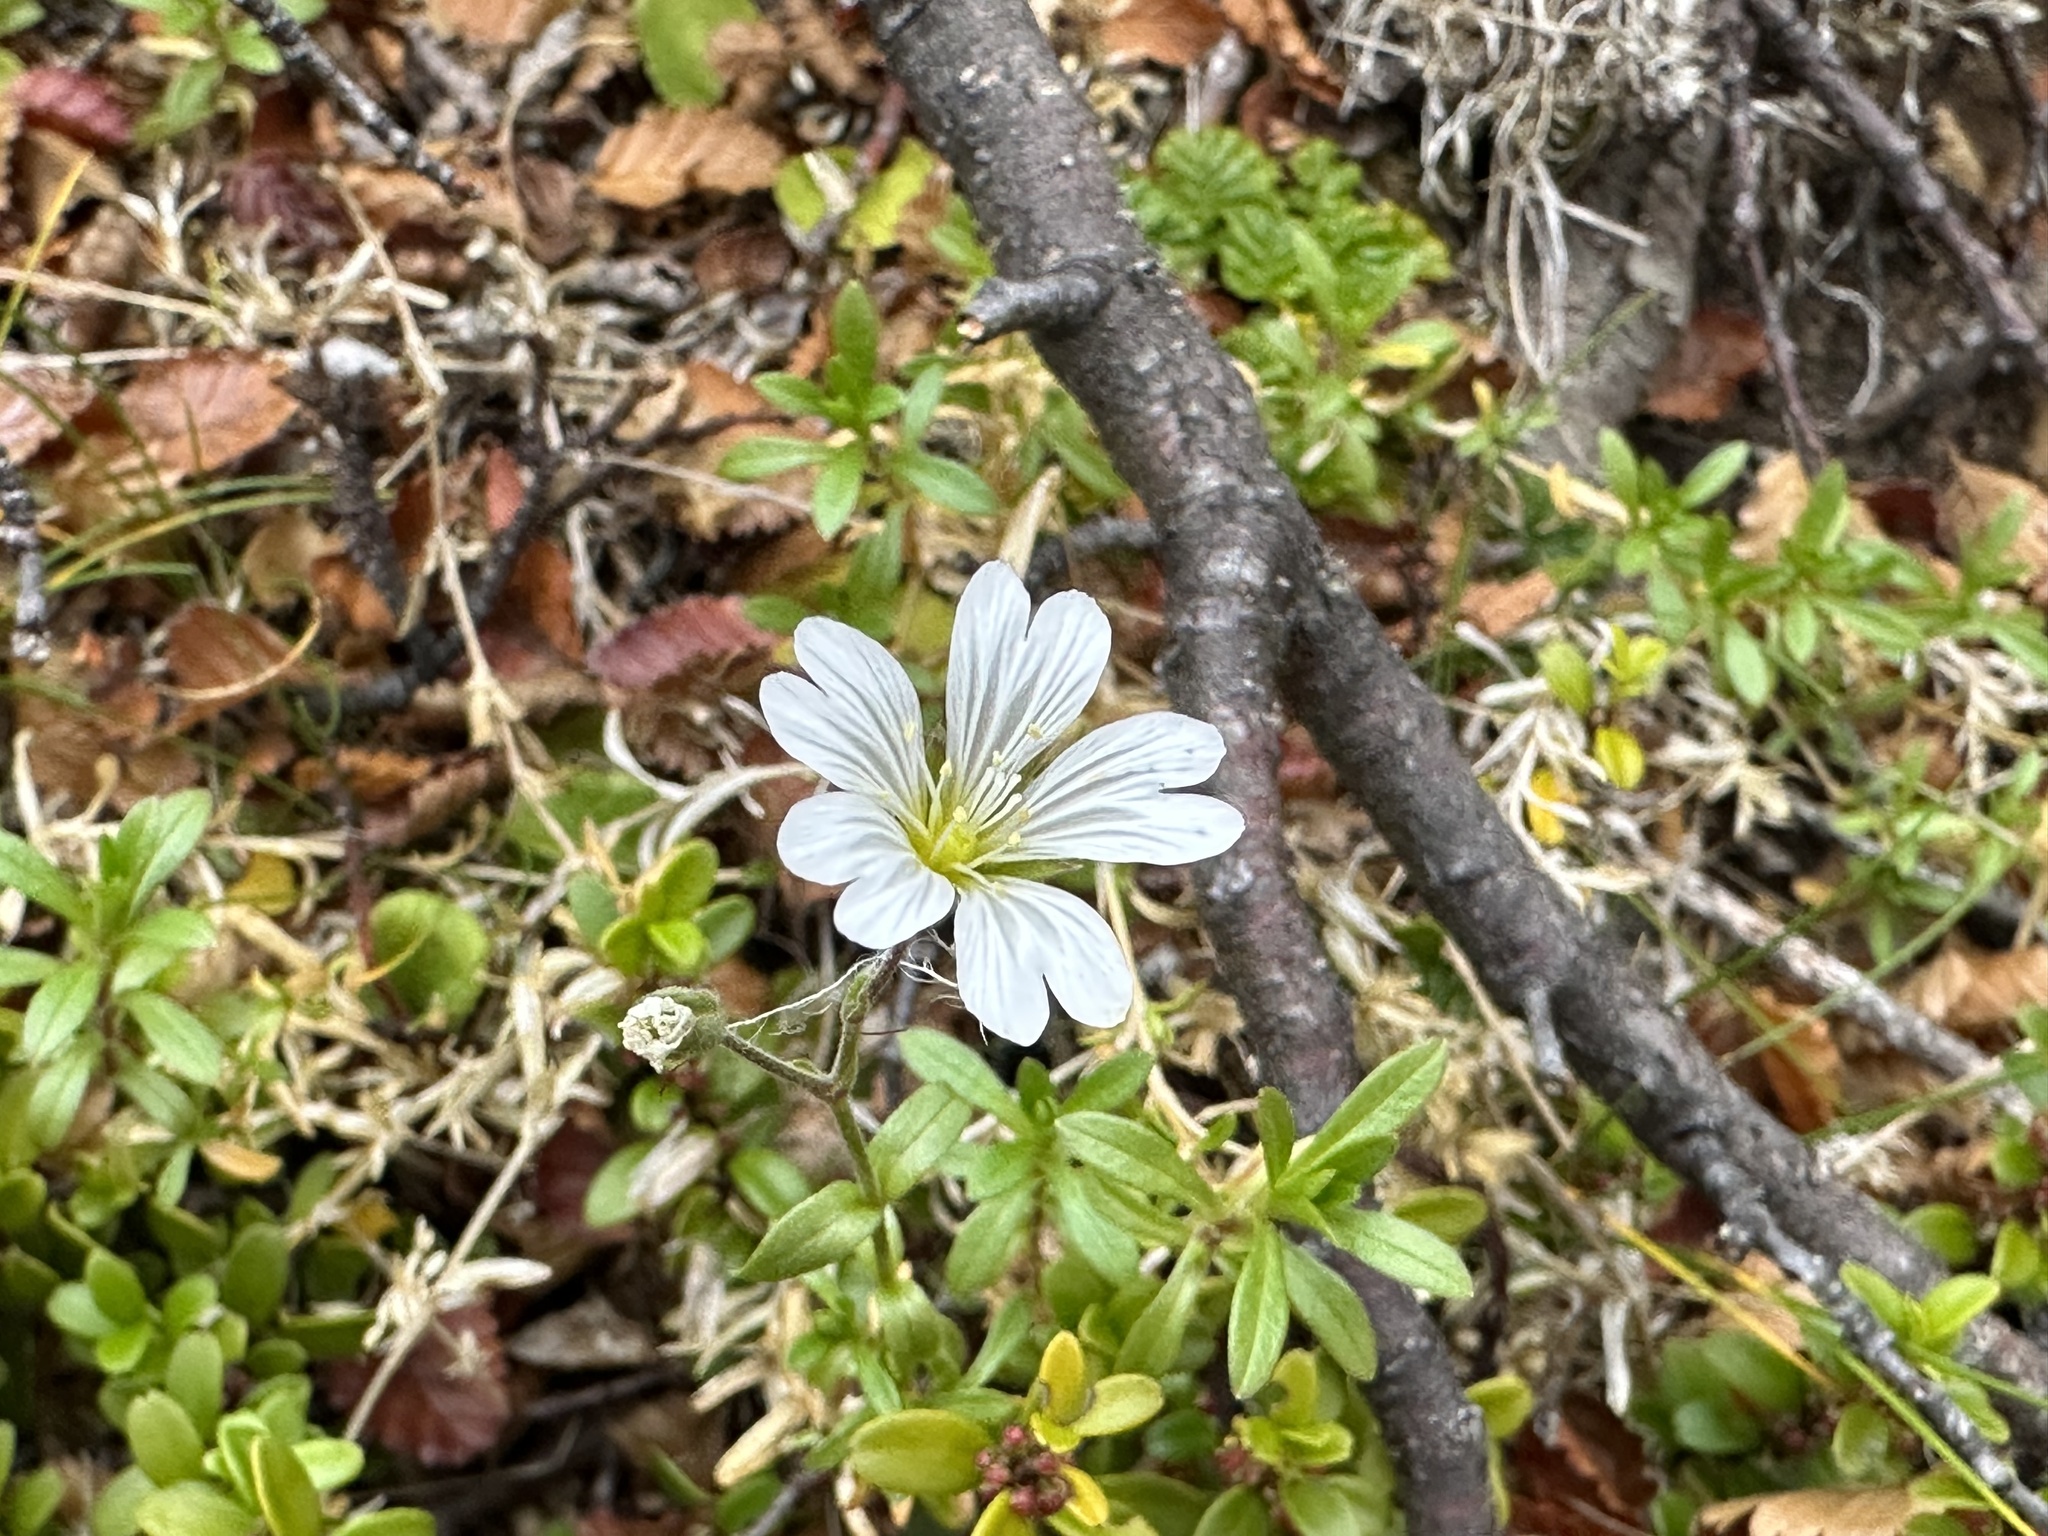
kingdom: Plantae
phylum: Tracheophyta
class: Magnoliopsida
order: Caryophyllales
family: Caryophyllaceae
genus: Cerastium
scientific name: Cerastium arvense
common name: Field mouse-ear
